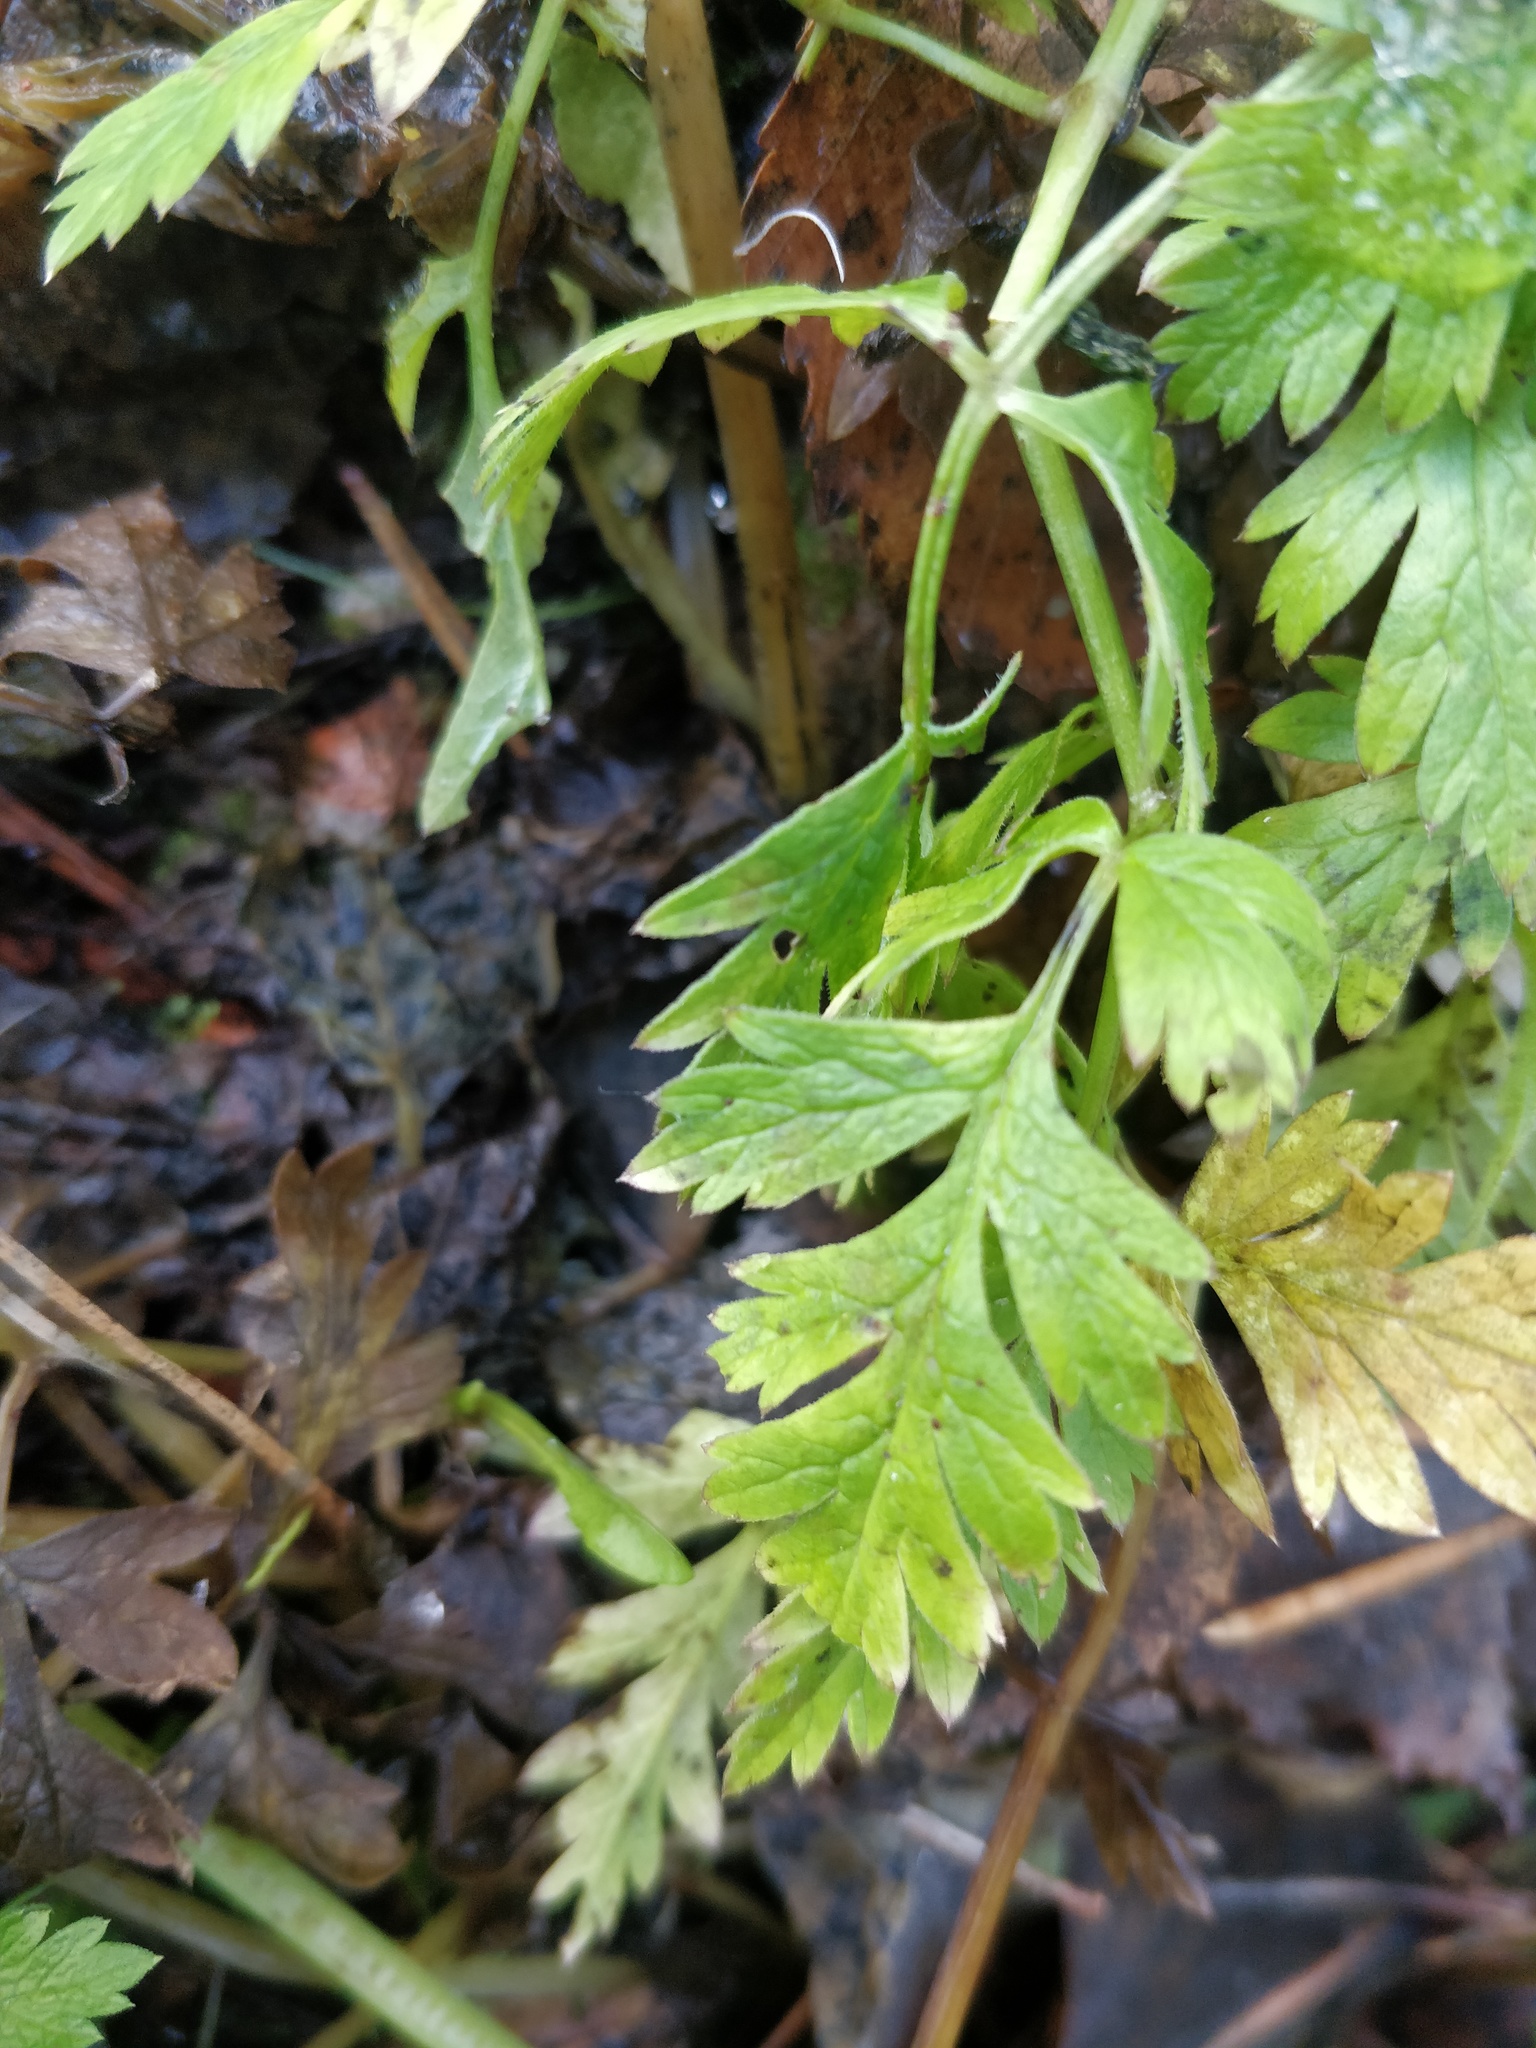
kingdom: Plantae
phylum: Tracheophyta
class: Magnoliopsida
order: Apiales
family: Apiaceae
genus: Anthriscus
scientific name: Anthriscus sylvestris
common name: Cow parsley
